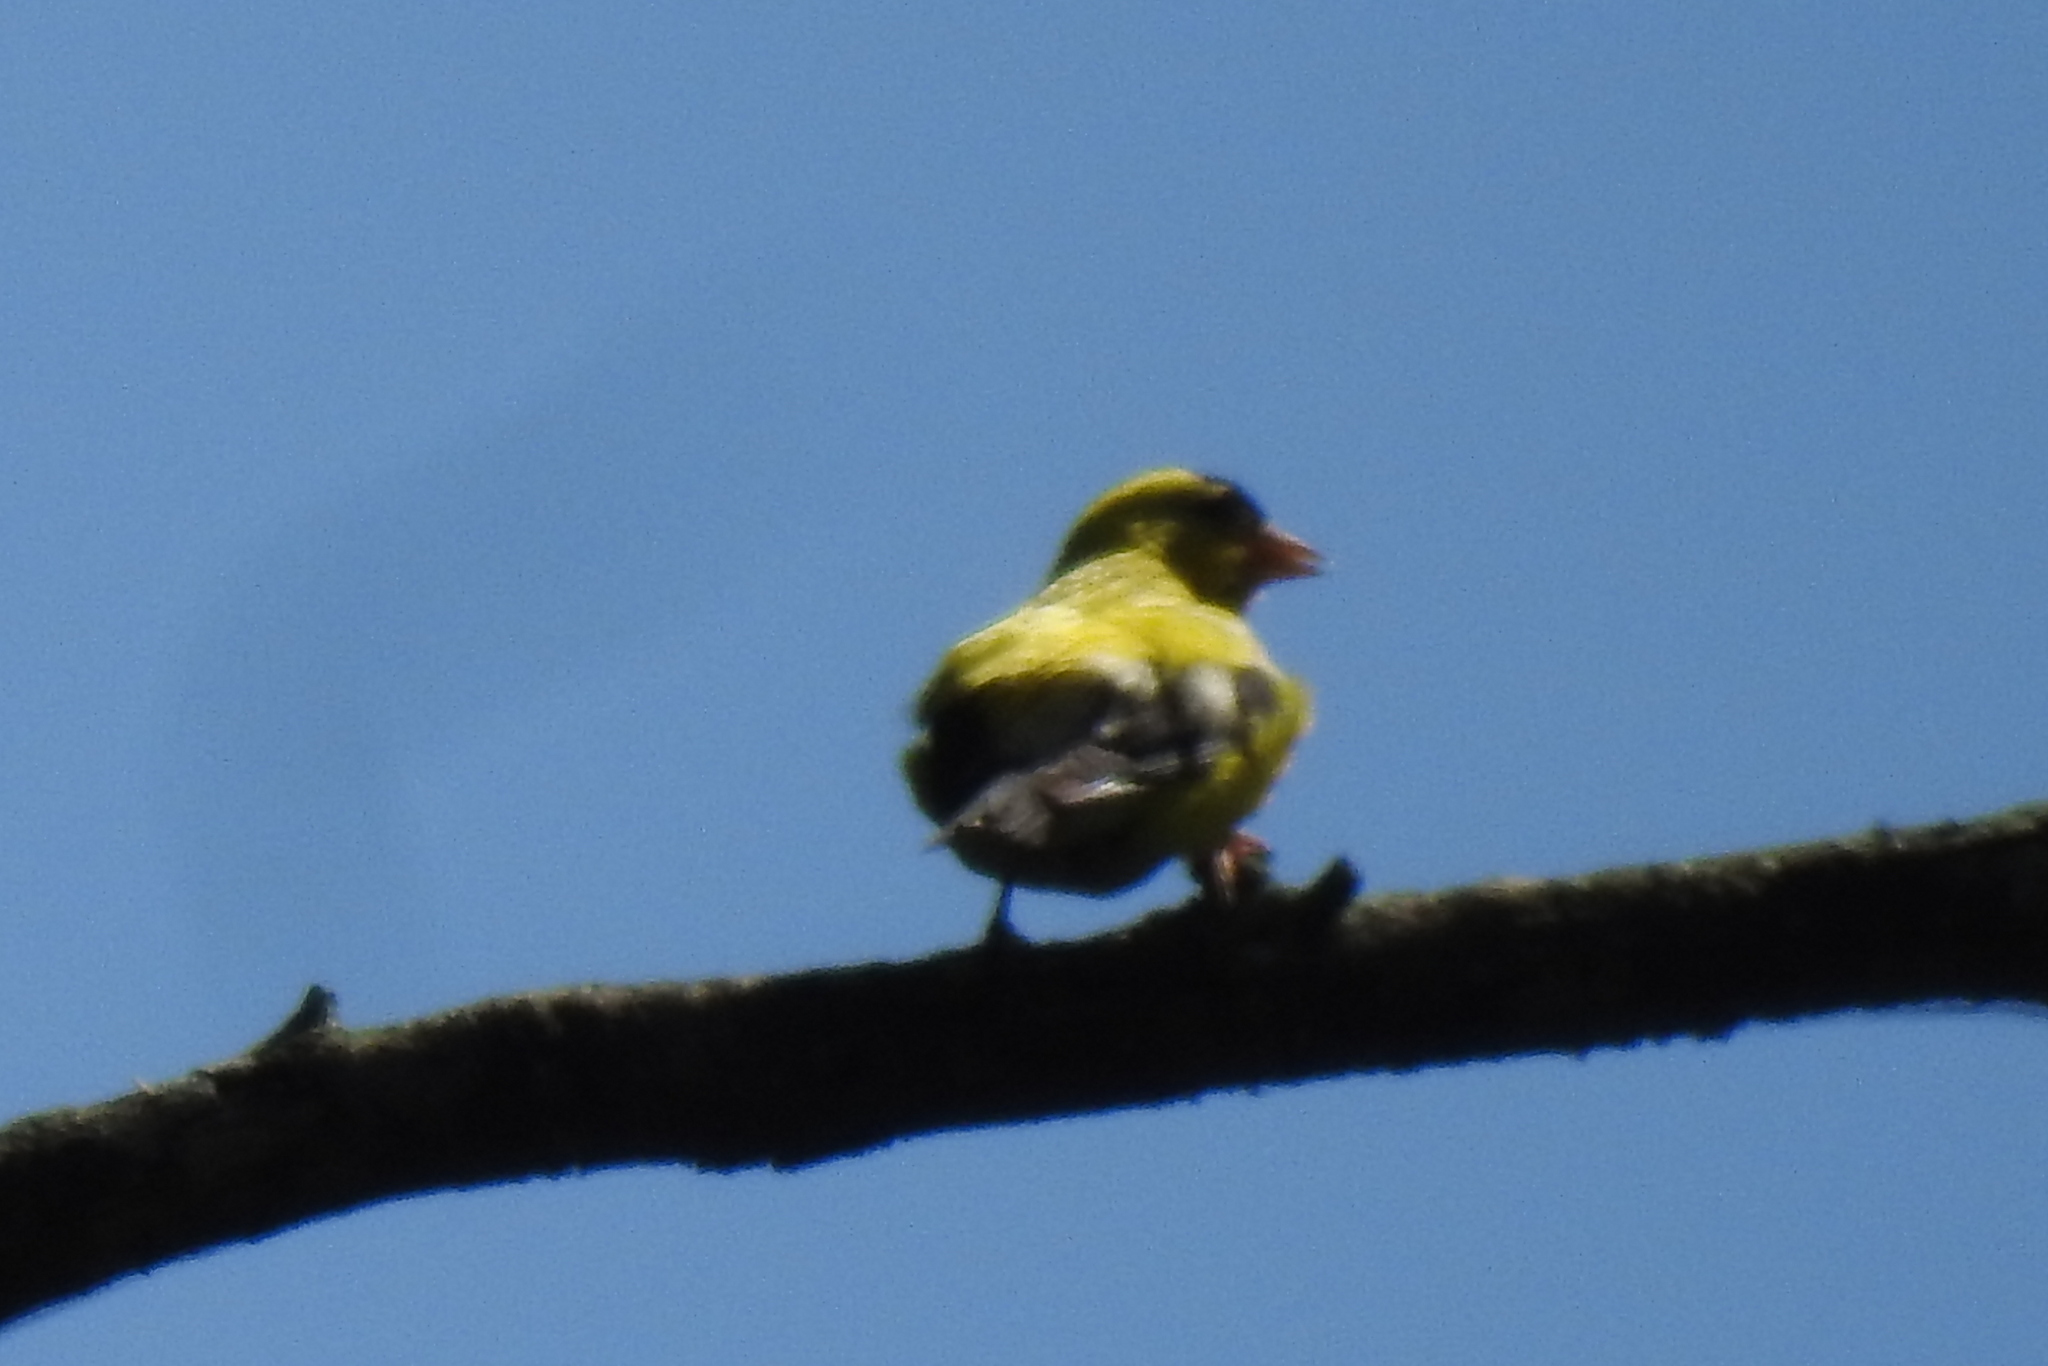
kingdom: Animalia
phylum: Chordata
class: Aves
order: Passeriformes
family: Fringillidae
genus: Spinus
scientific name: Spinus tristis
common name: American goldfinch
